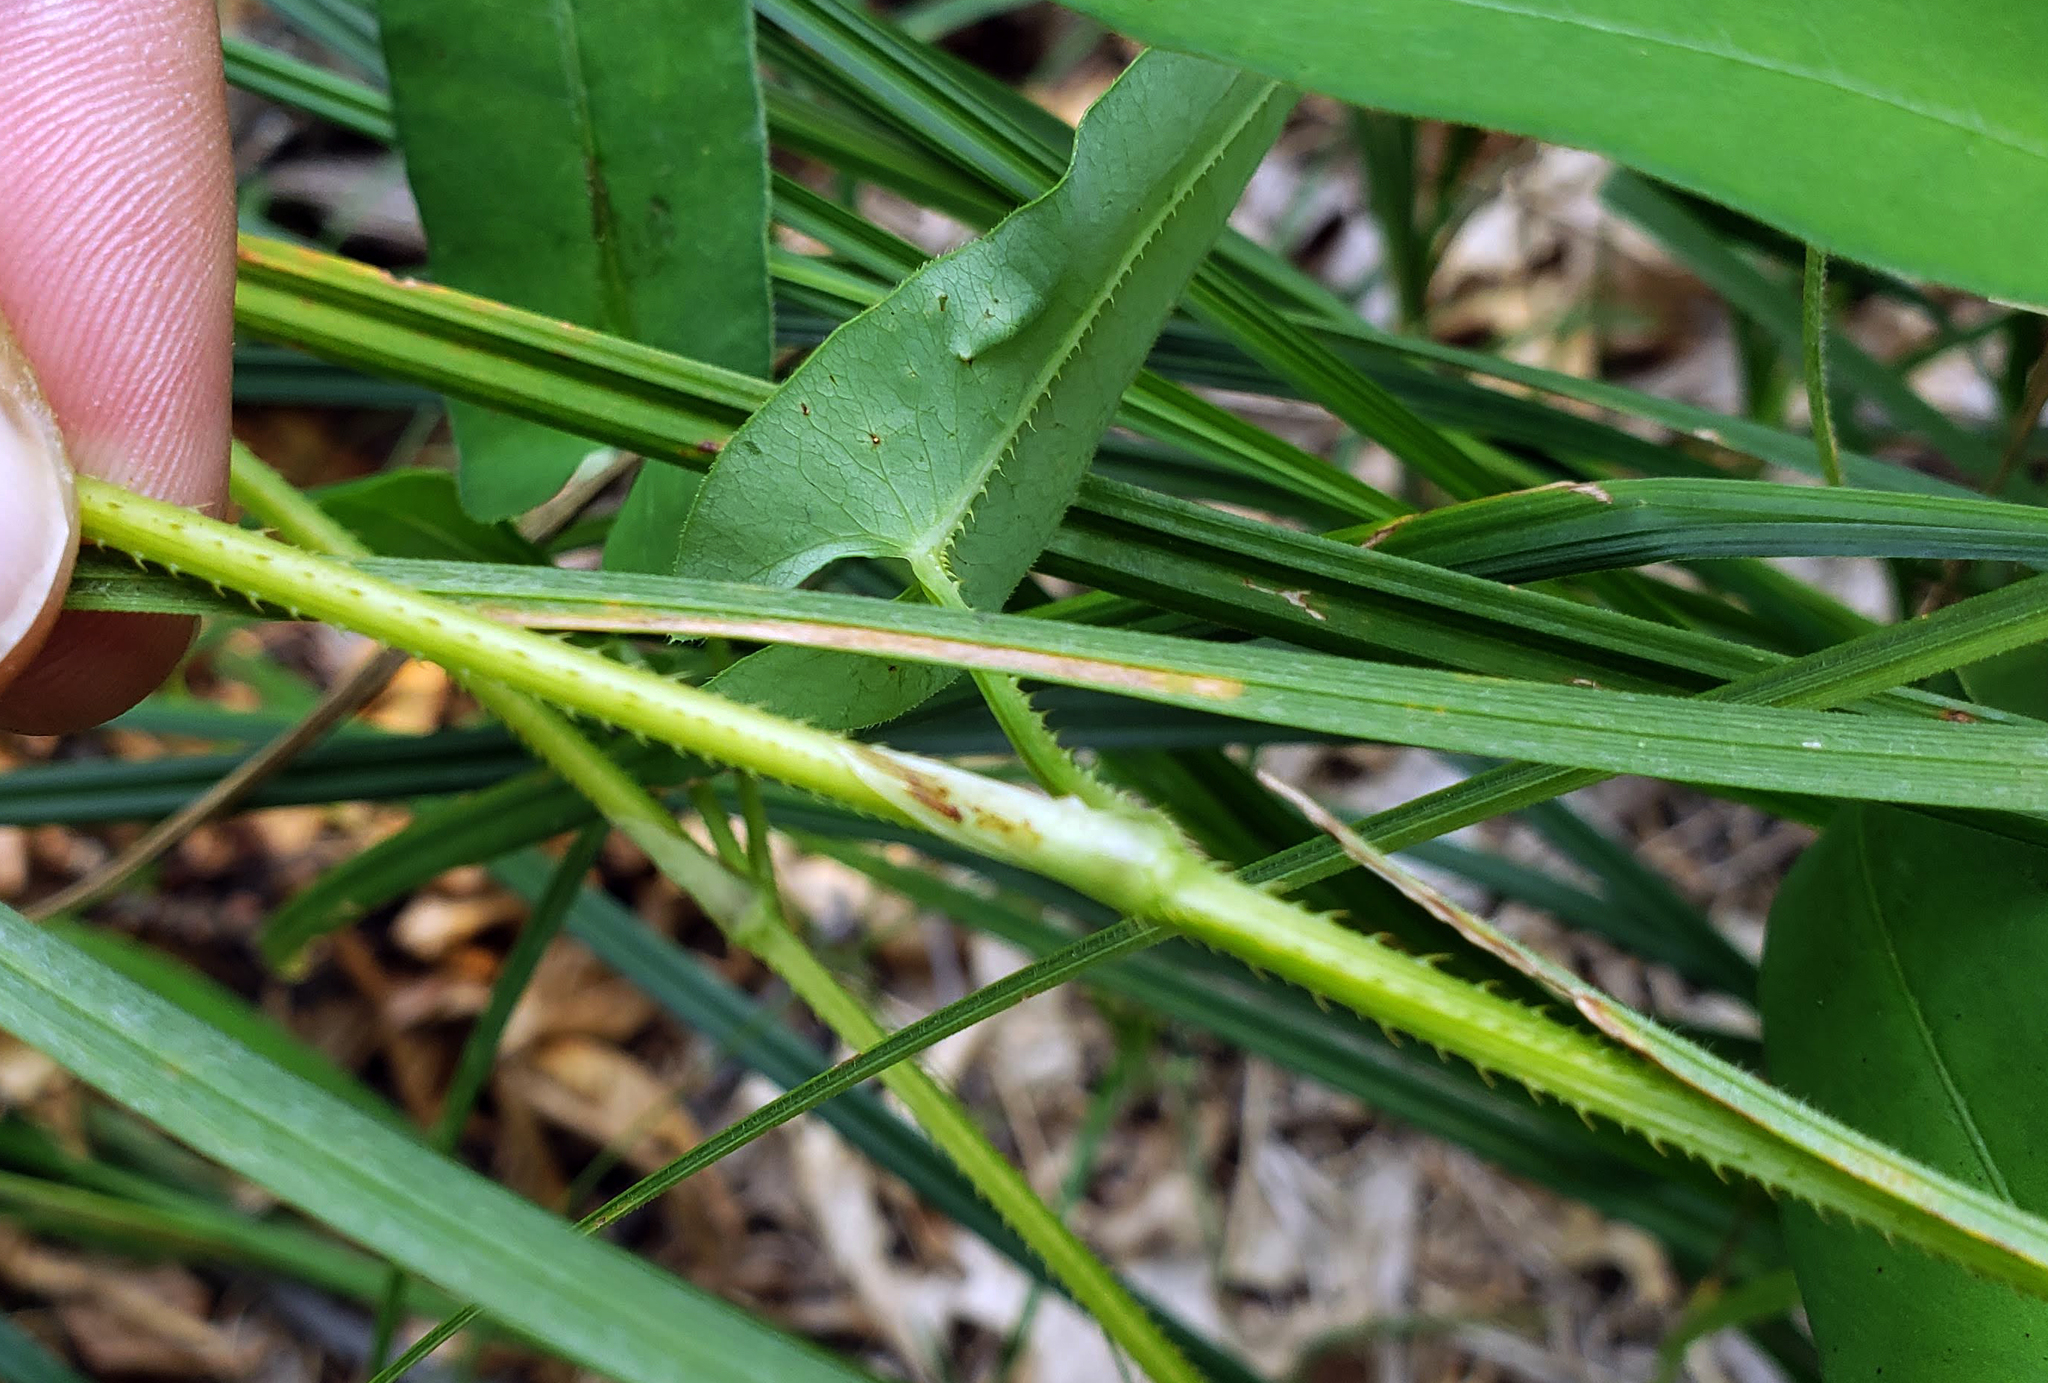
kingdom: Plantae
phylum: Tracheophyta
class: Magnoliopsida
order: Caryophyllales
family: Polygonaceae
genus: Persicaria
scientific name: Persicaria sagittata
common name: American tearthumb
